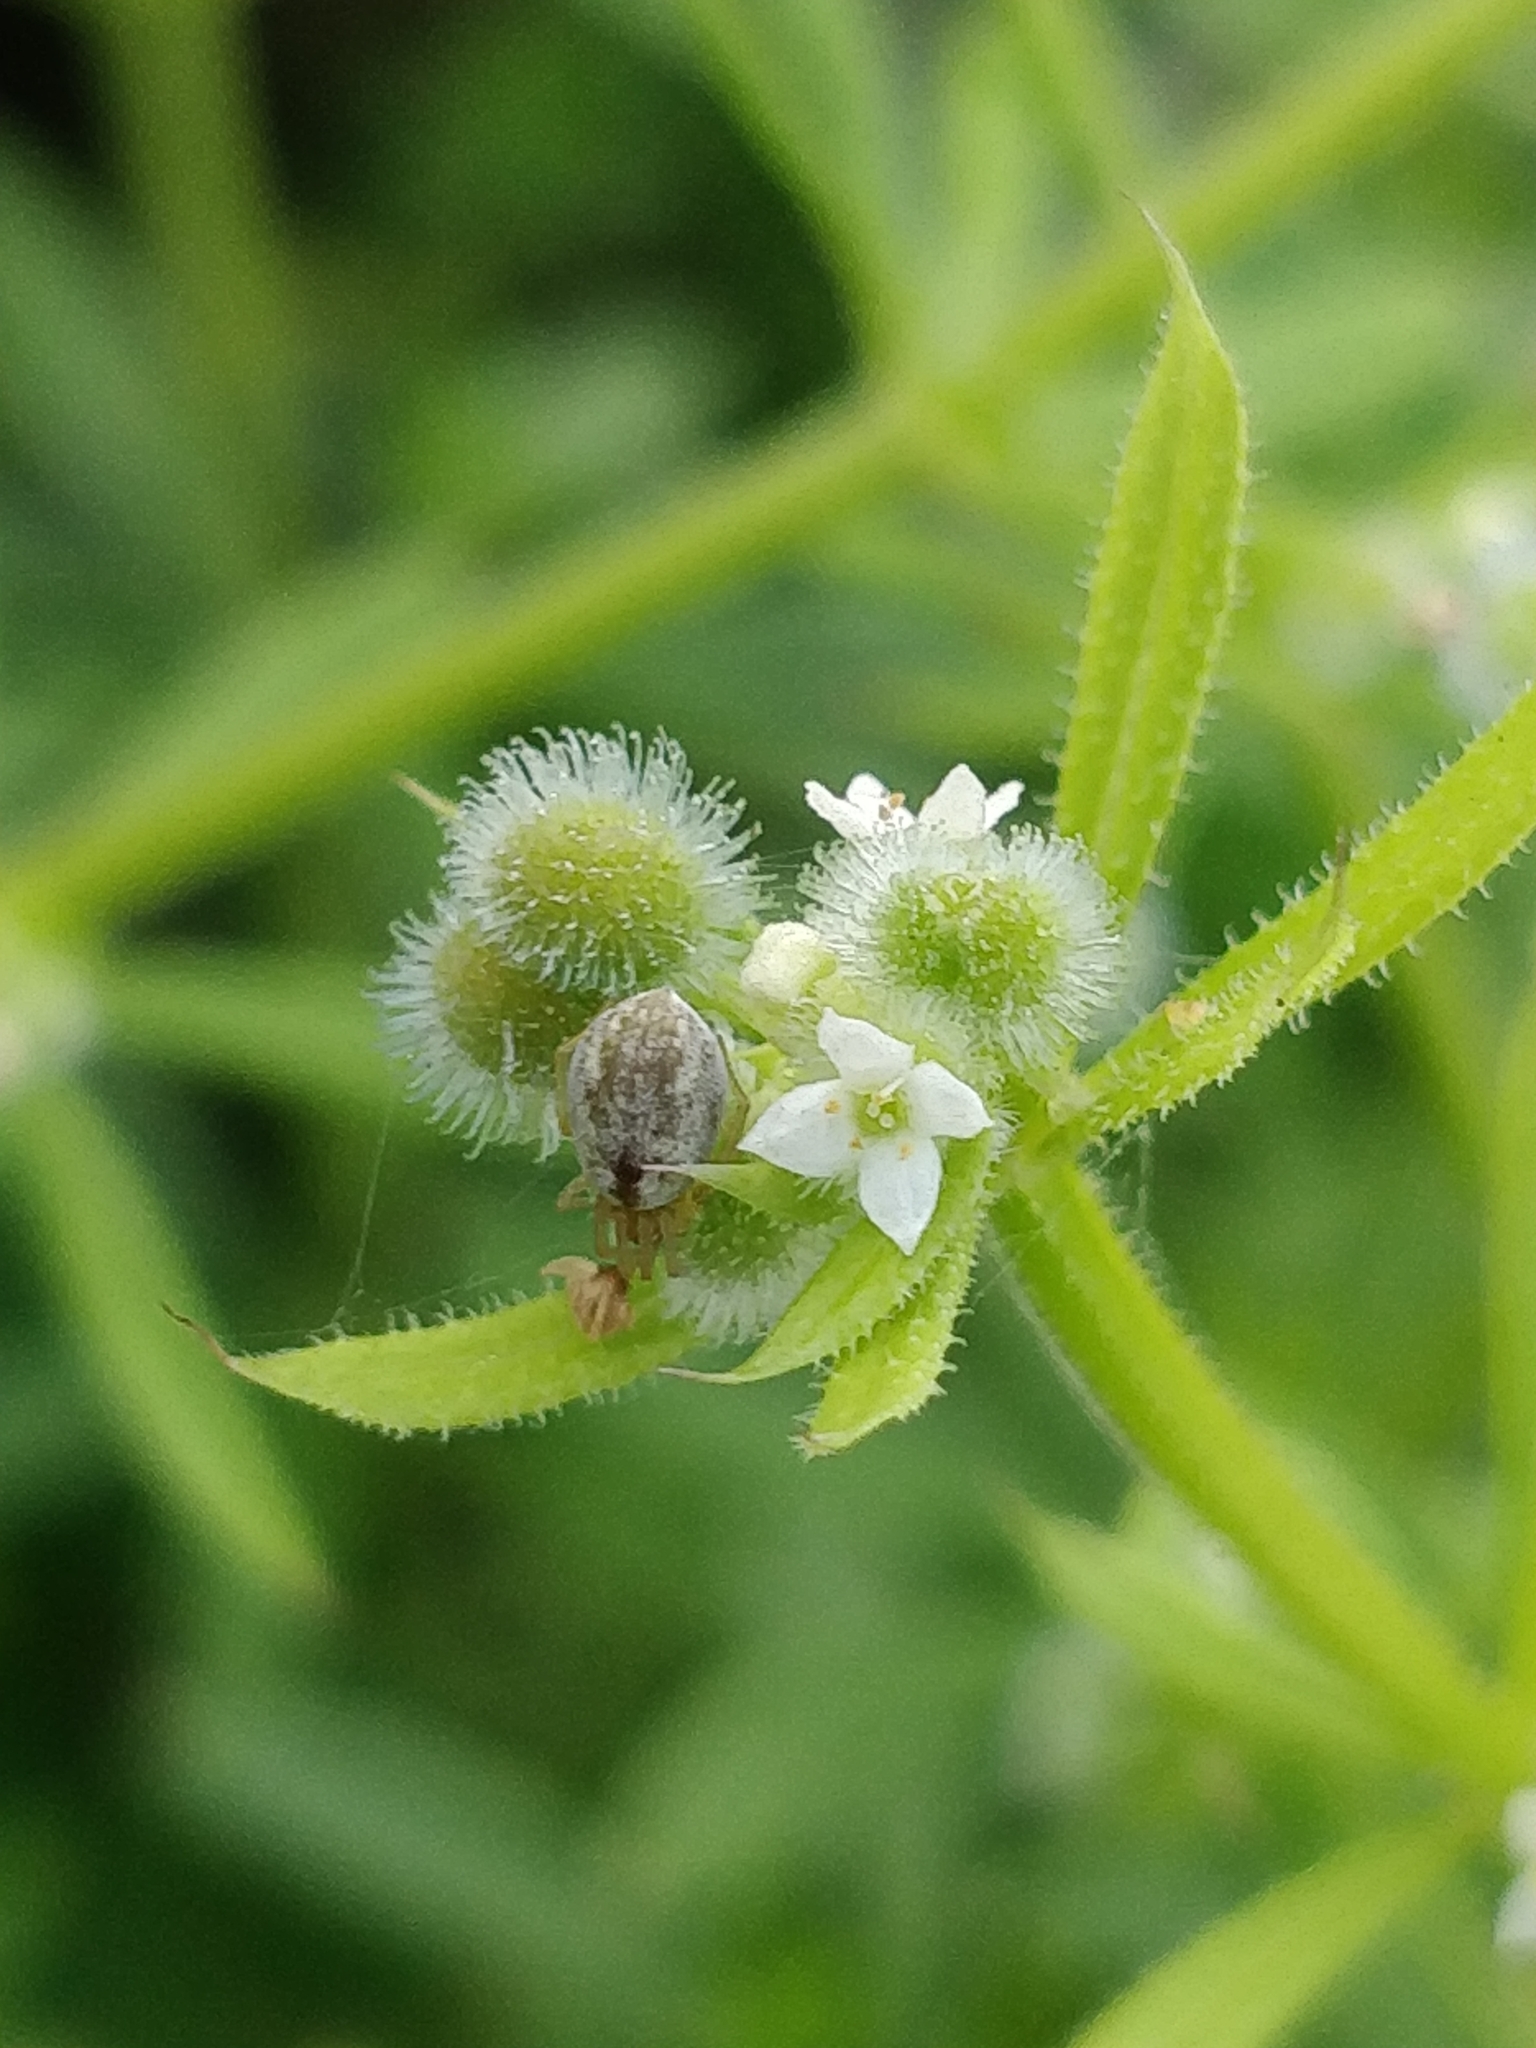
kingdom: Plantae
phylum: Tracheophyta
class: Magnoliopsida
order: Gentianales
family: Rubiaceae
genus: Galium
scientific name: Galium aparine
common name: Cleavers
